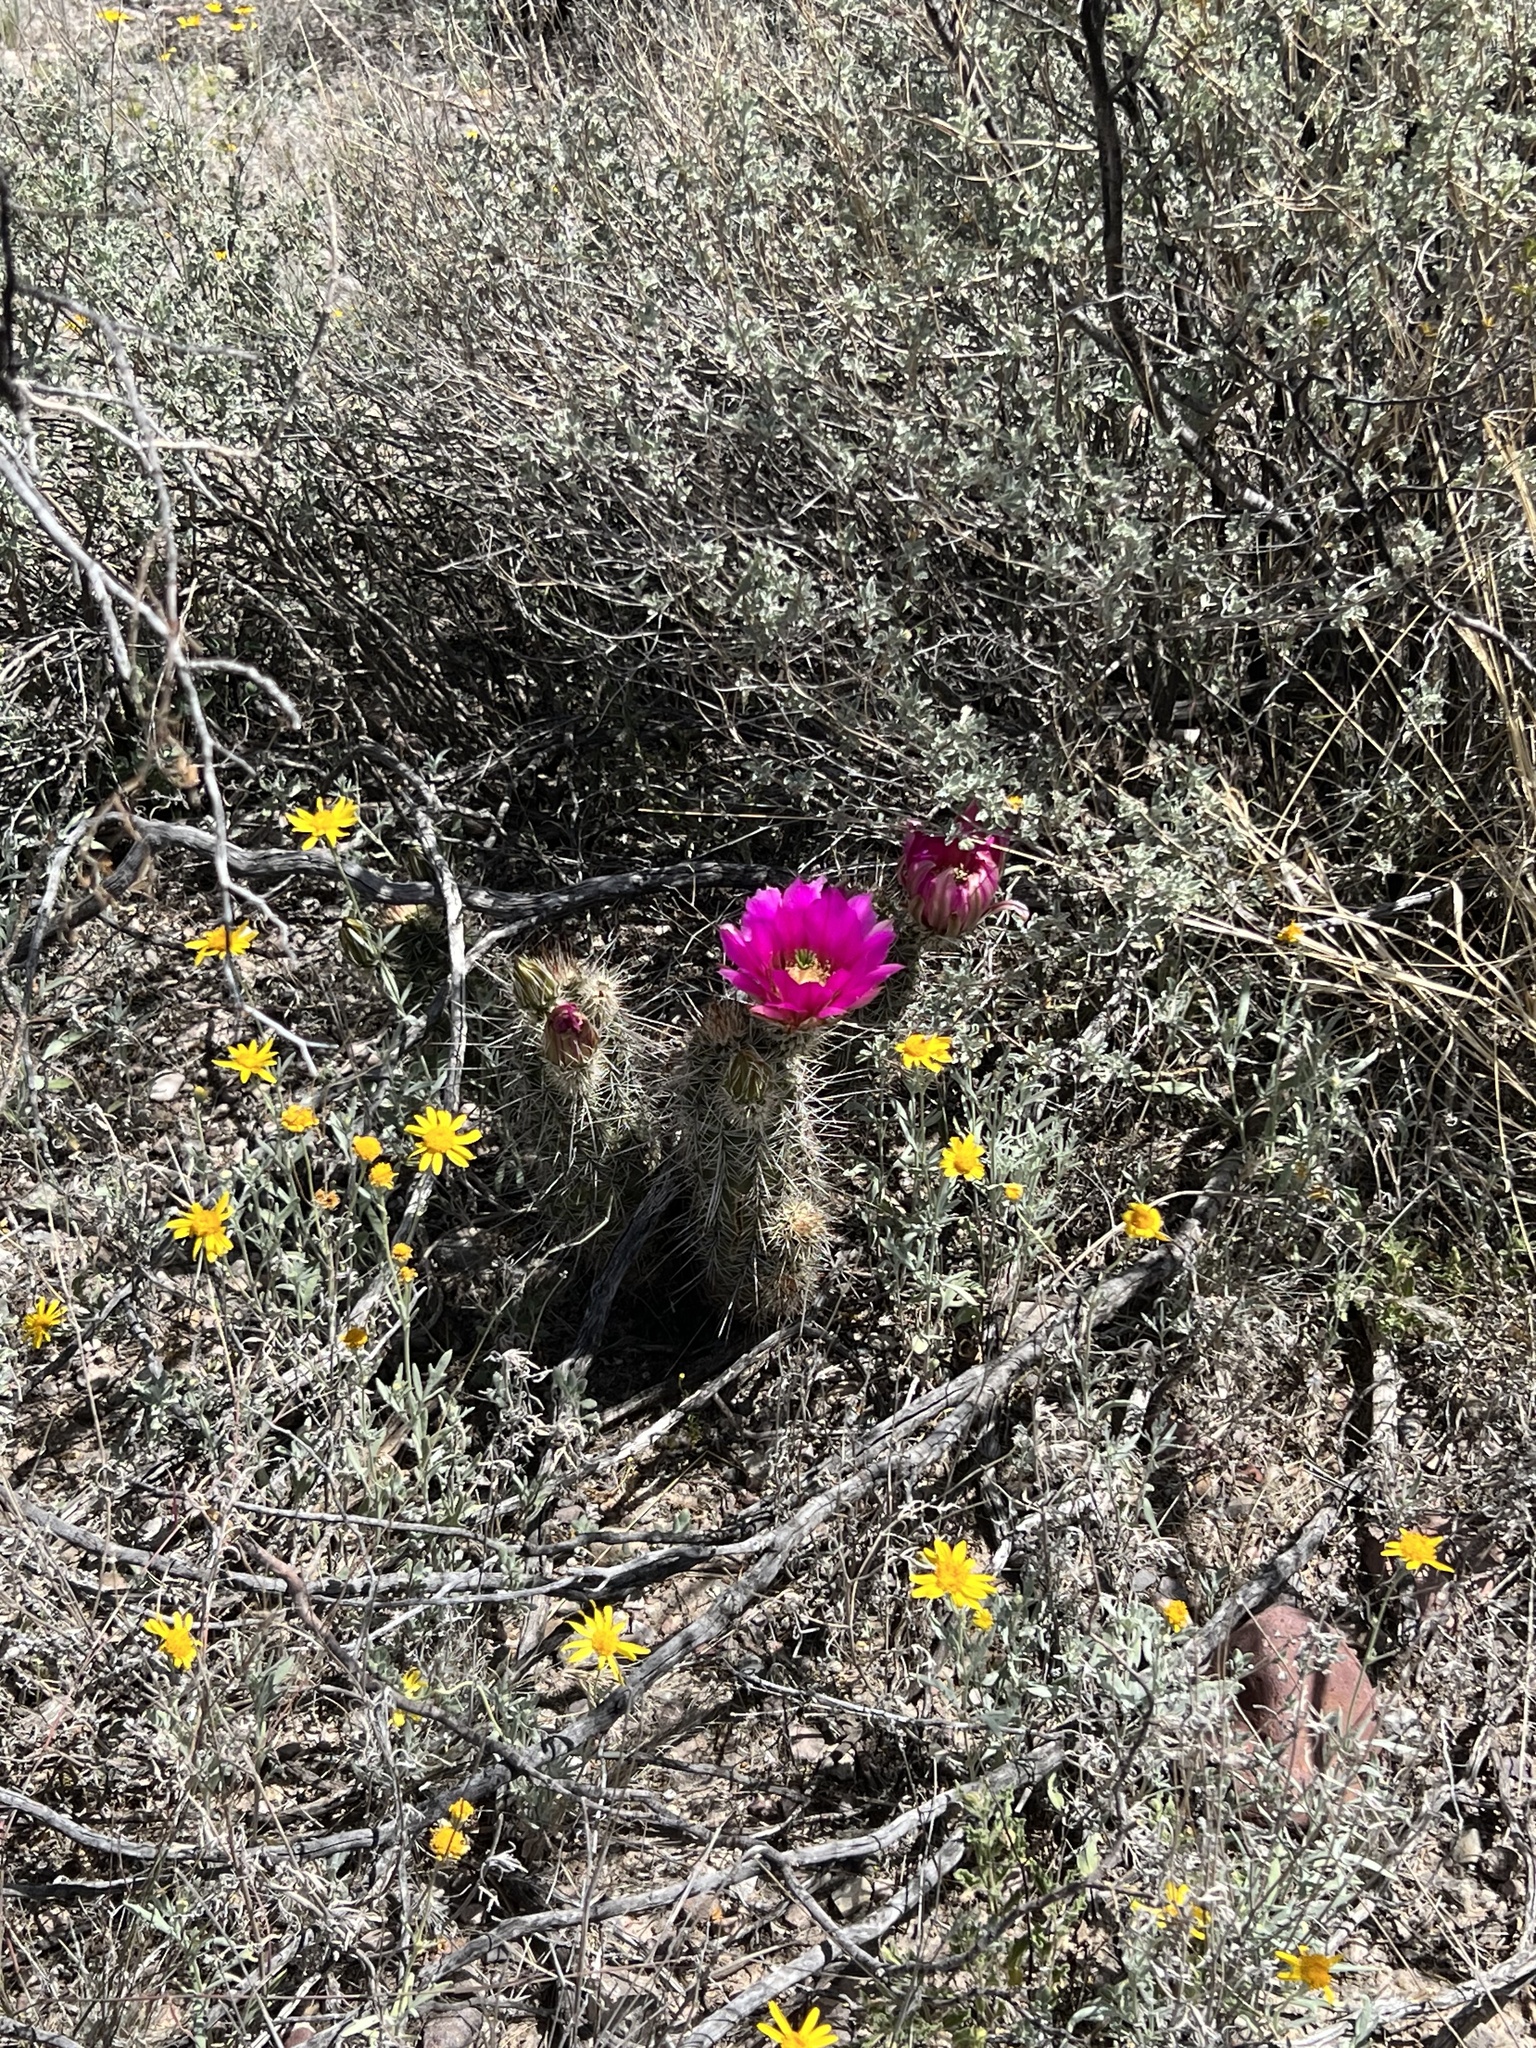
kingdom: Plantae
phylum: Tracheophyta
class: Magnoliopsida
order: Caryophyllales
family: Cactaceae
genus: Echinocereus
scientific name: Echinocereus fasciculatus
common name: Bundle hedgehog
